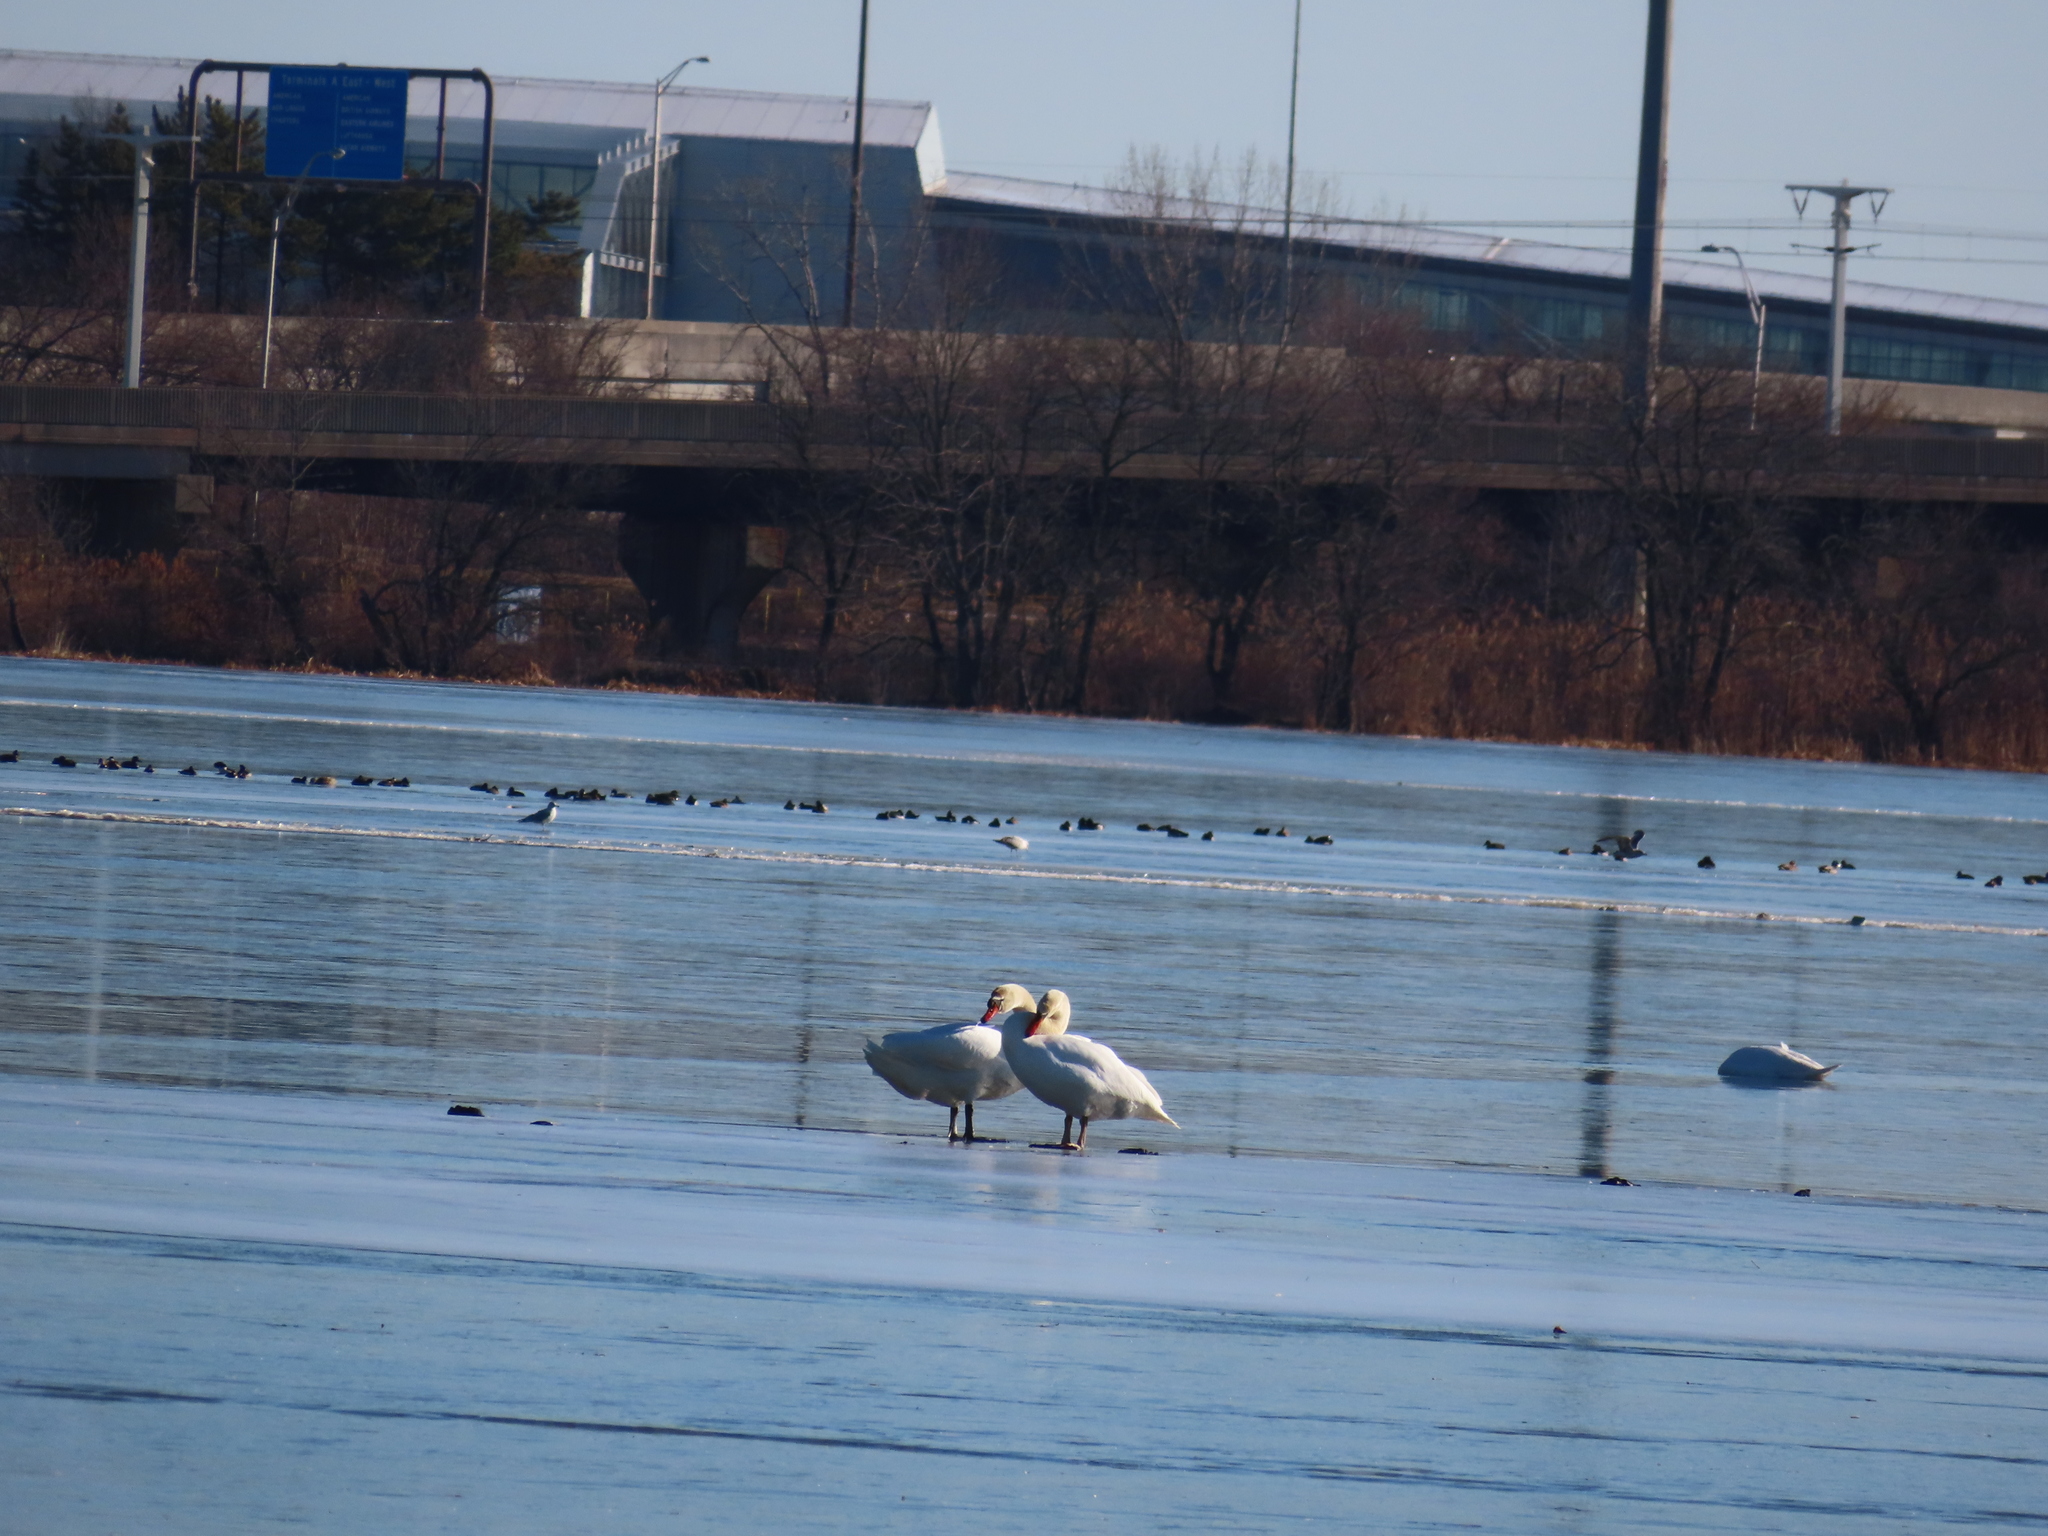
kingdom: Animalia
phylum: Chordata
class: Aves
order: Anseriformes
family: Anatidae
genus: Cygnus
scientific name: Cygnus olor
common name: Mute swan
